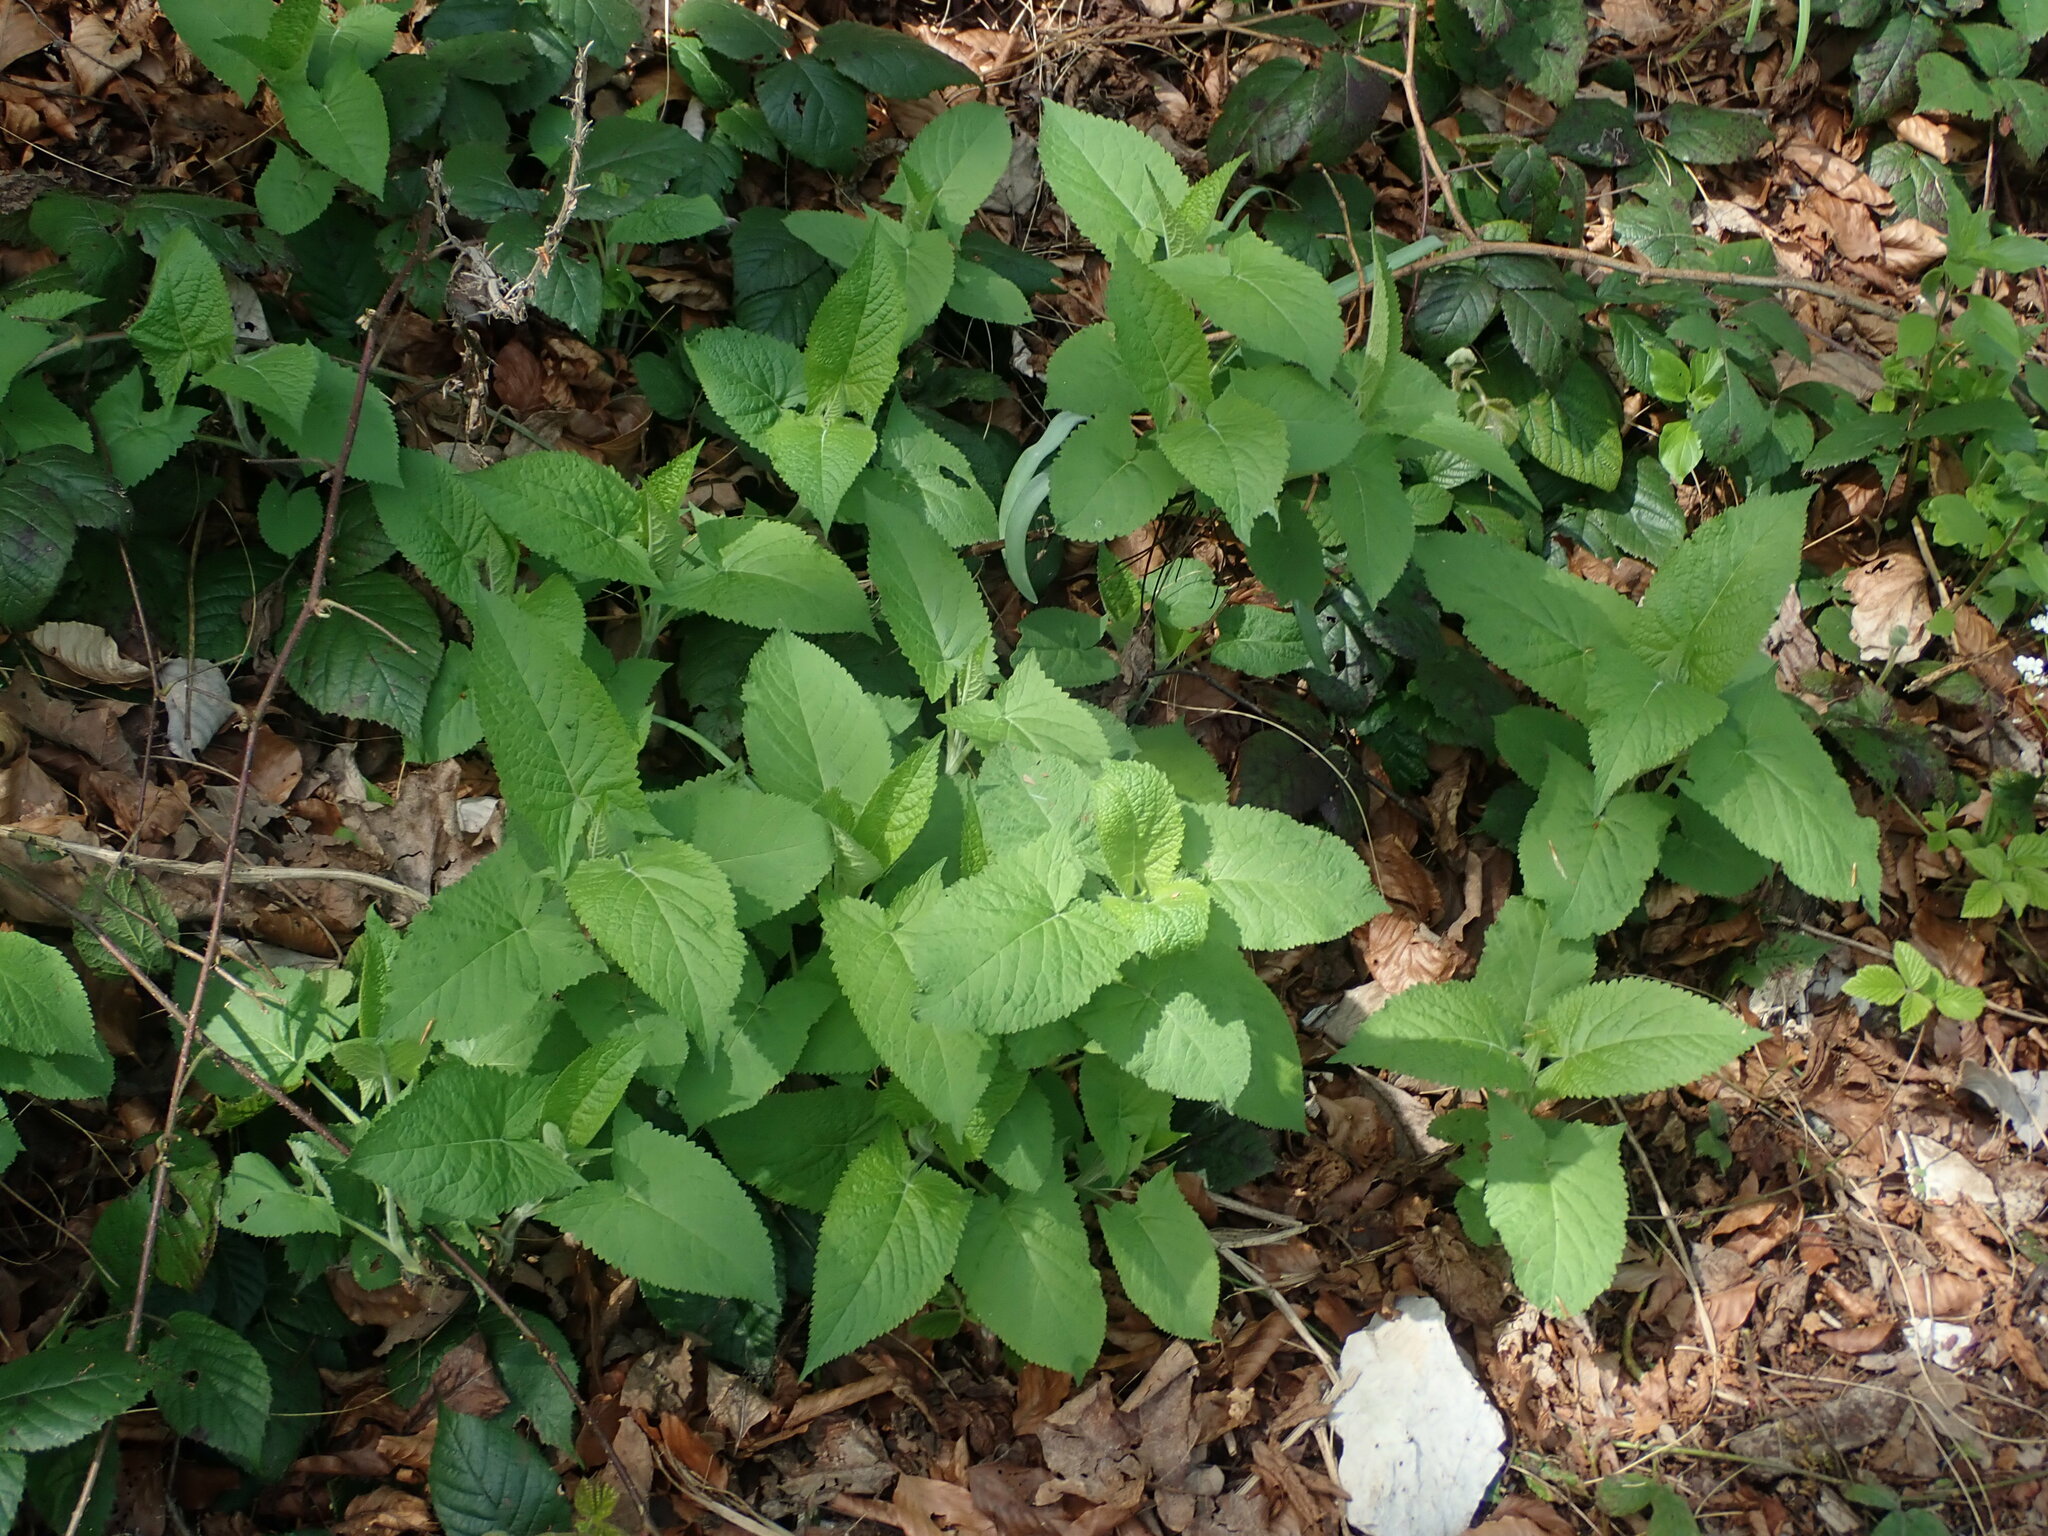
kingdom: Plantae
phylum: Tracheophyta
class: Magnoliopsida
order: Lamiales
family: Lamiaceae
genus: Salvia
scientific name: Salvia glutinosa
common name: Sticky clary
